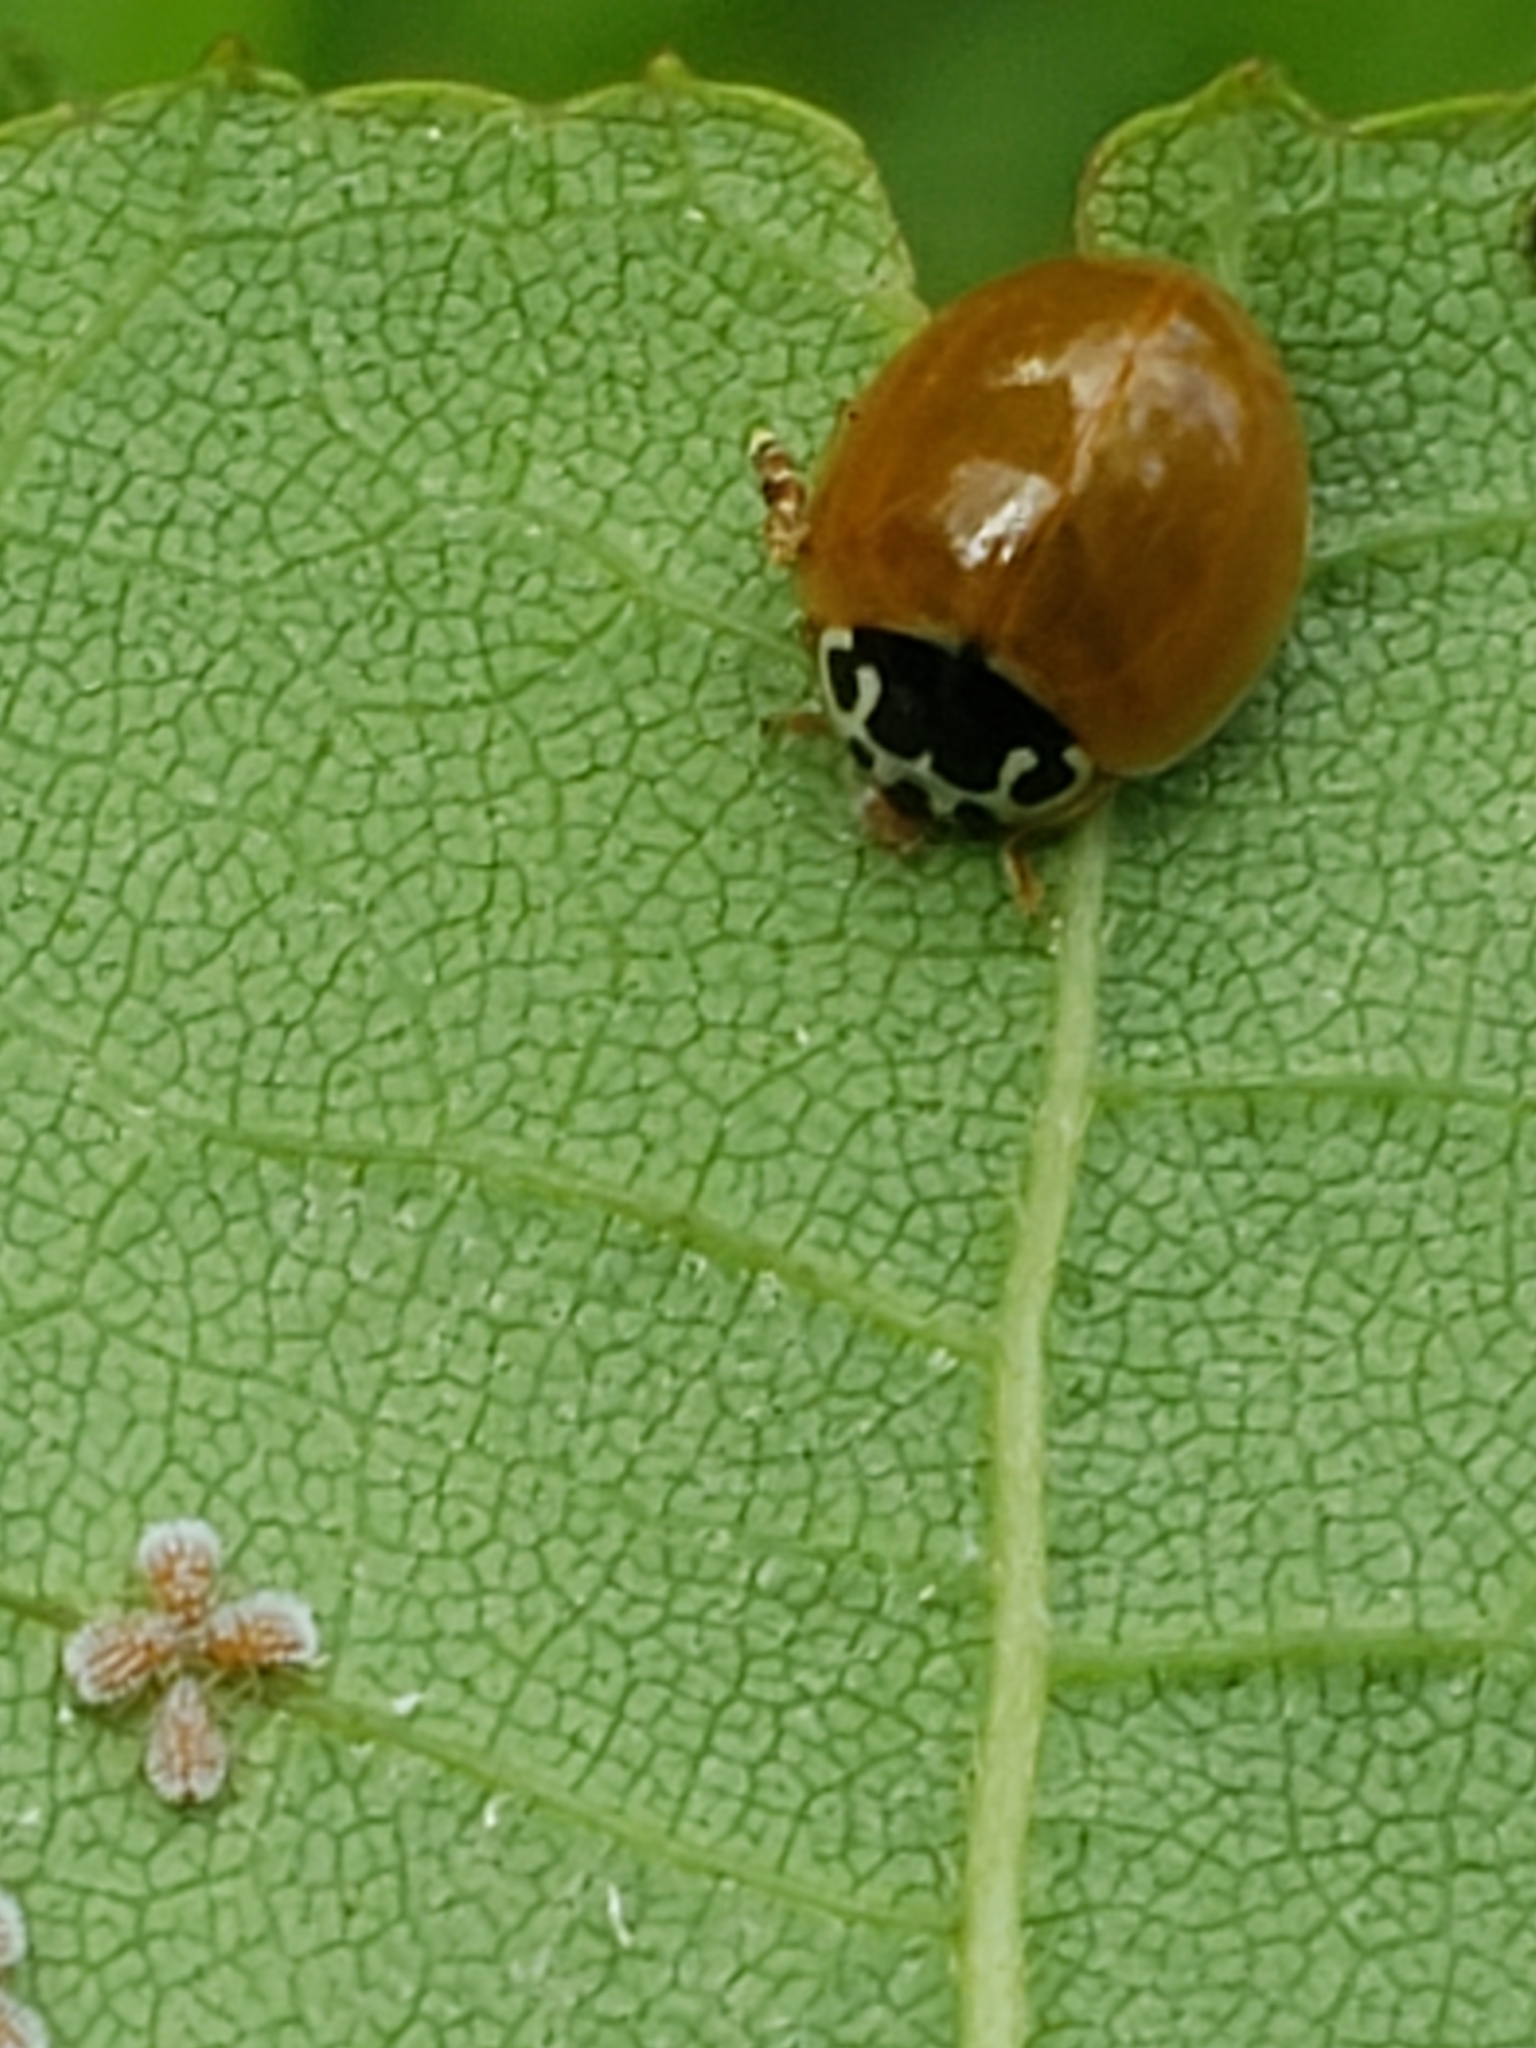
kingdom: Animalia
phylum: Arthropoda
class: Insecta
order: Coleoptera
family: Coccinellidae
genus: Cycloneda
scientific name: Cycloneda munda
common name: Polished lady beetle
